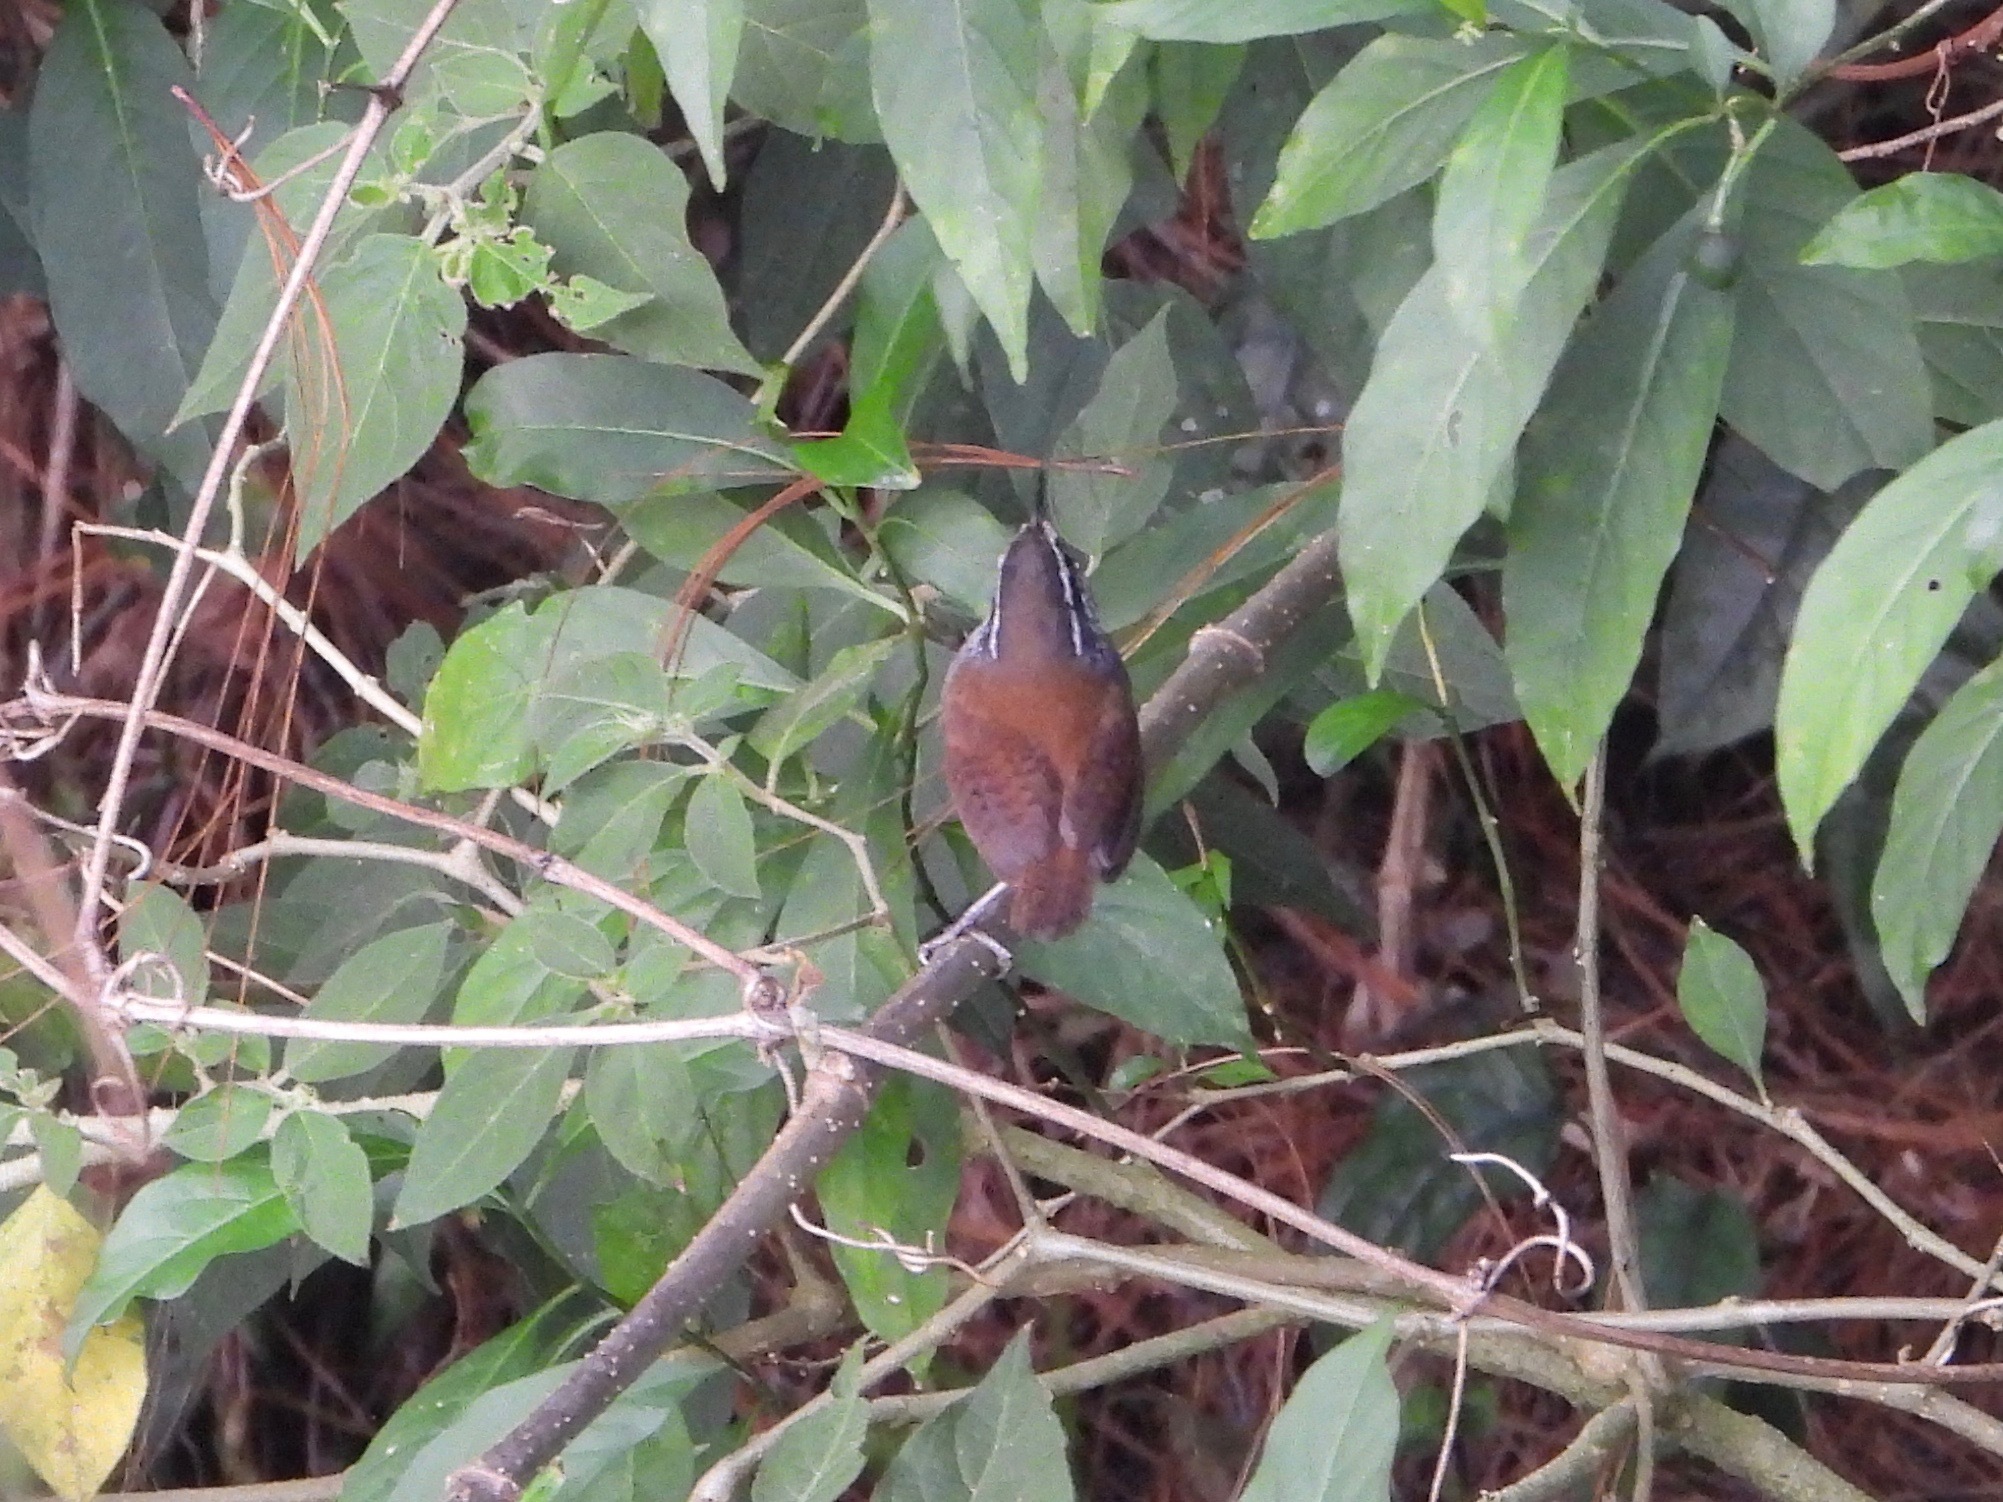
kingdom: Animalia
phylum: Chordata
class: Aves
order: Passeriformes
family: Troglodytidae
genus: Henicorhina
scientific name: Henicorhina leucophrys
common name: Gray-breasted wood-wren
